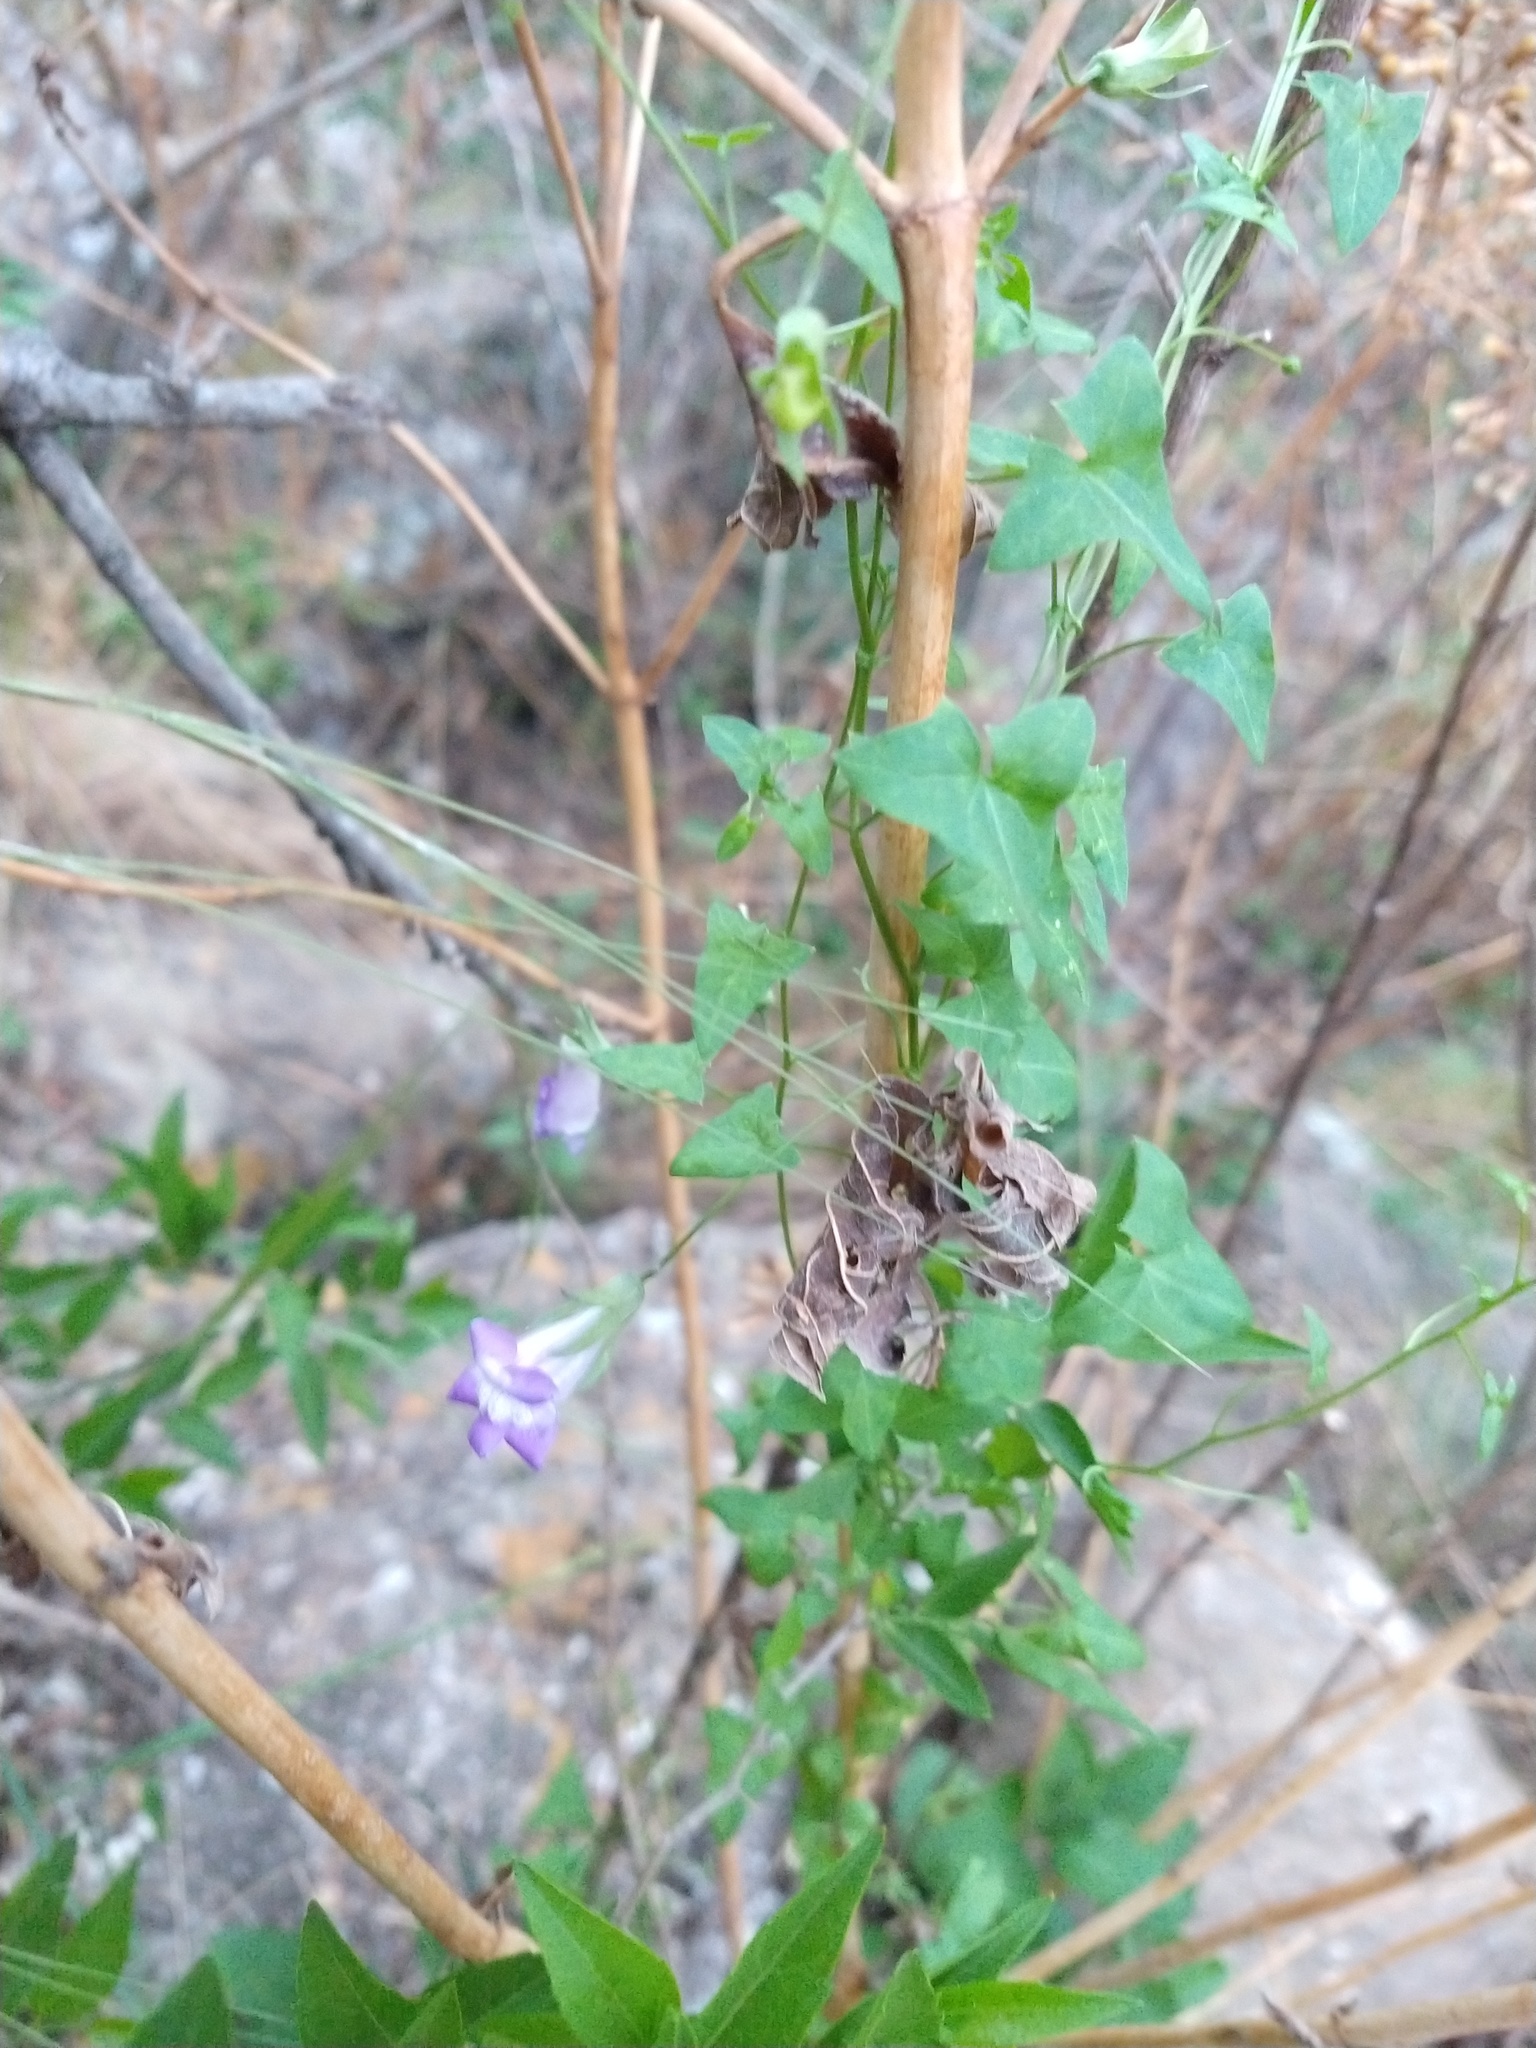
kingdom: Plantae
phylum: Tracheophyta
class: Magnoliopsida
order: Lamiales
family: Plantaginaceae
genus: Maurandella
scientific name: Maurandella antirrhiniflora
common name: Violet twining-snapdragon
